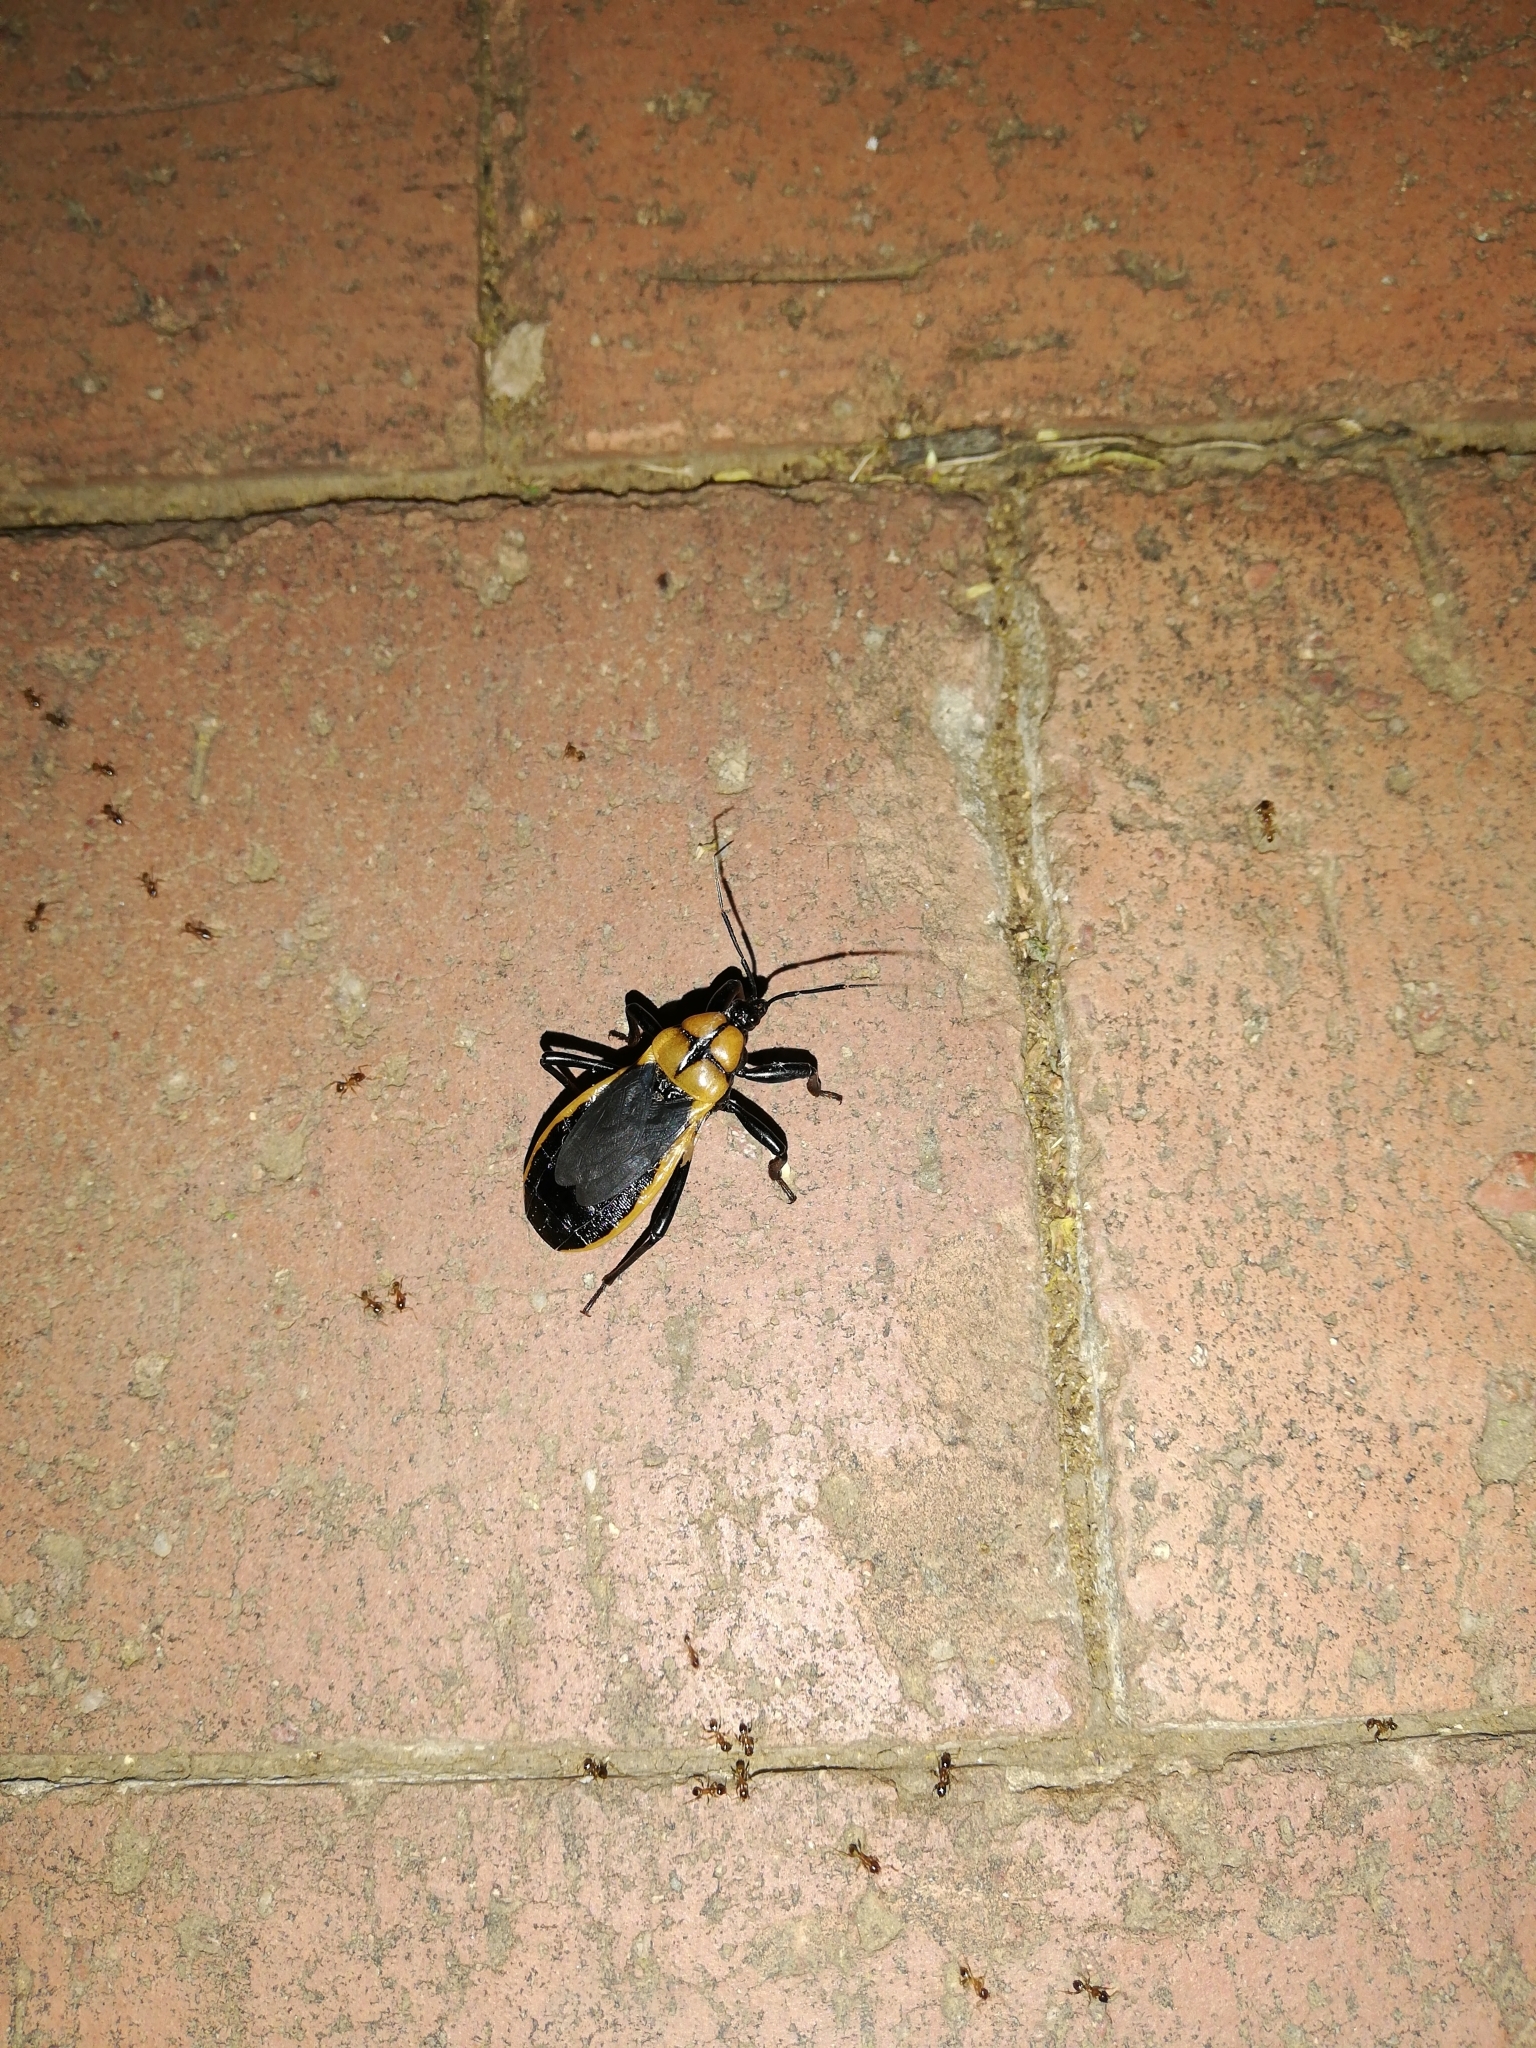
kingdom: Animalia
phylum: Arthropoda
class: Insecta
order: Hemiptera
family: Reduviidae
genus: Ectrichodia
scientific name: Ectrichodia crux
